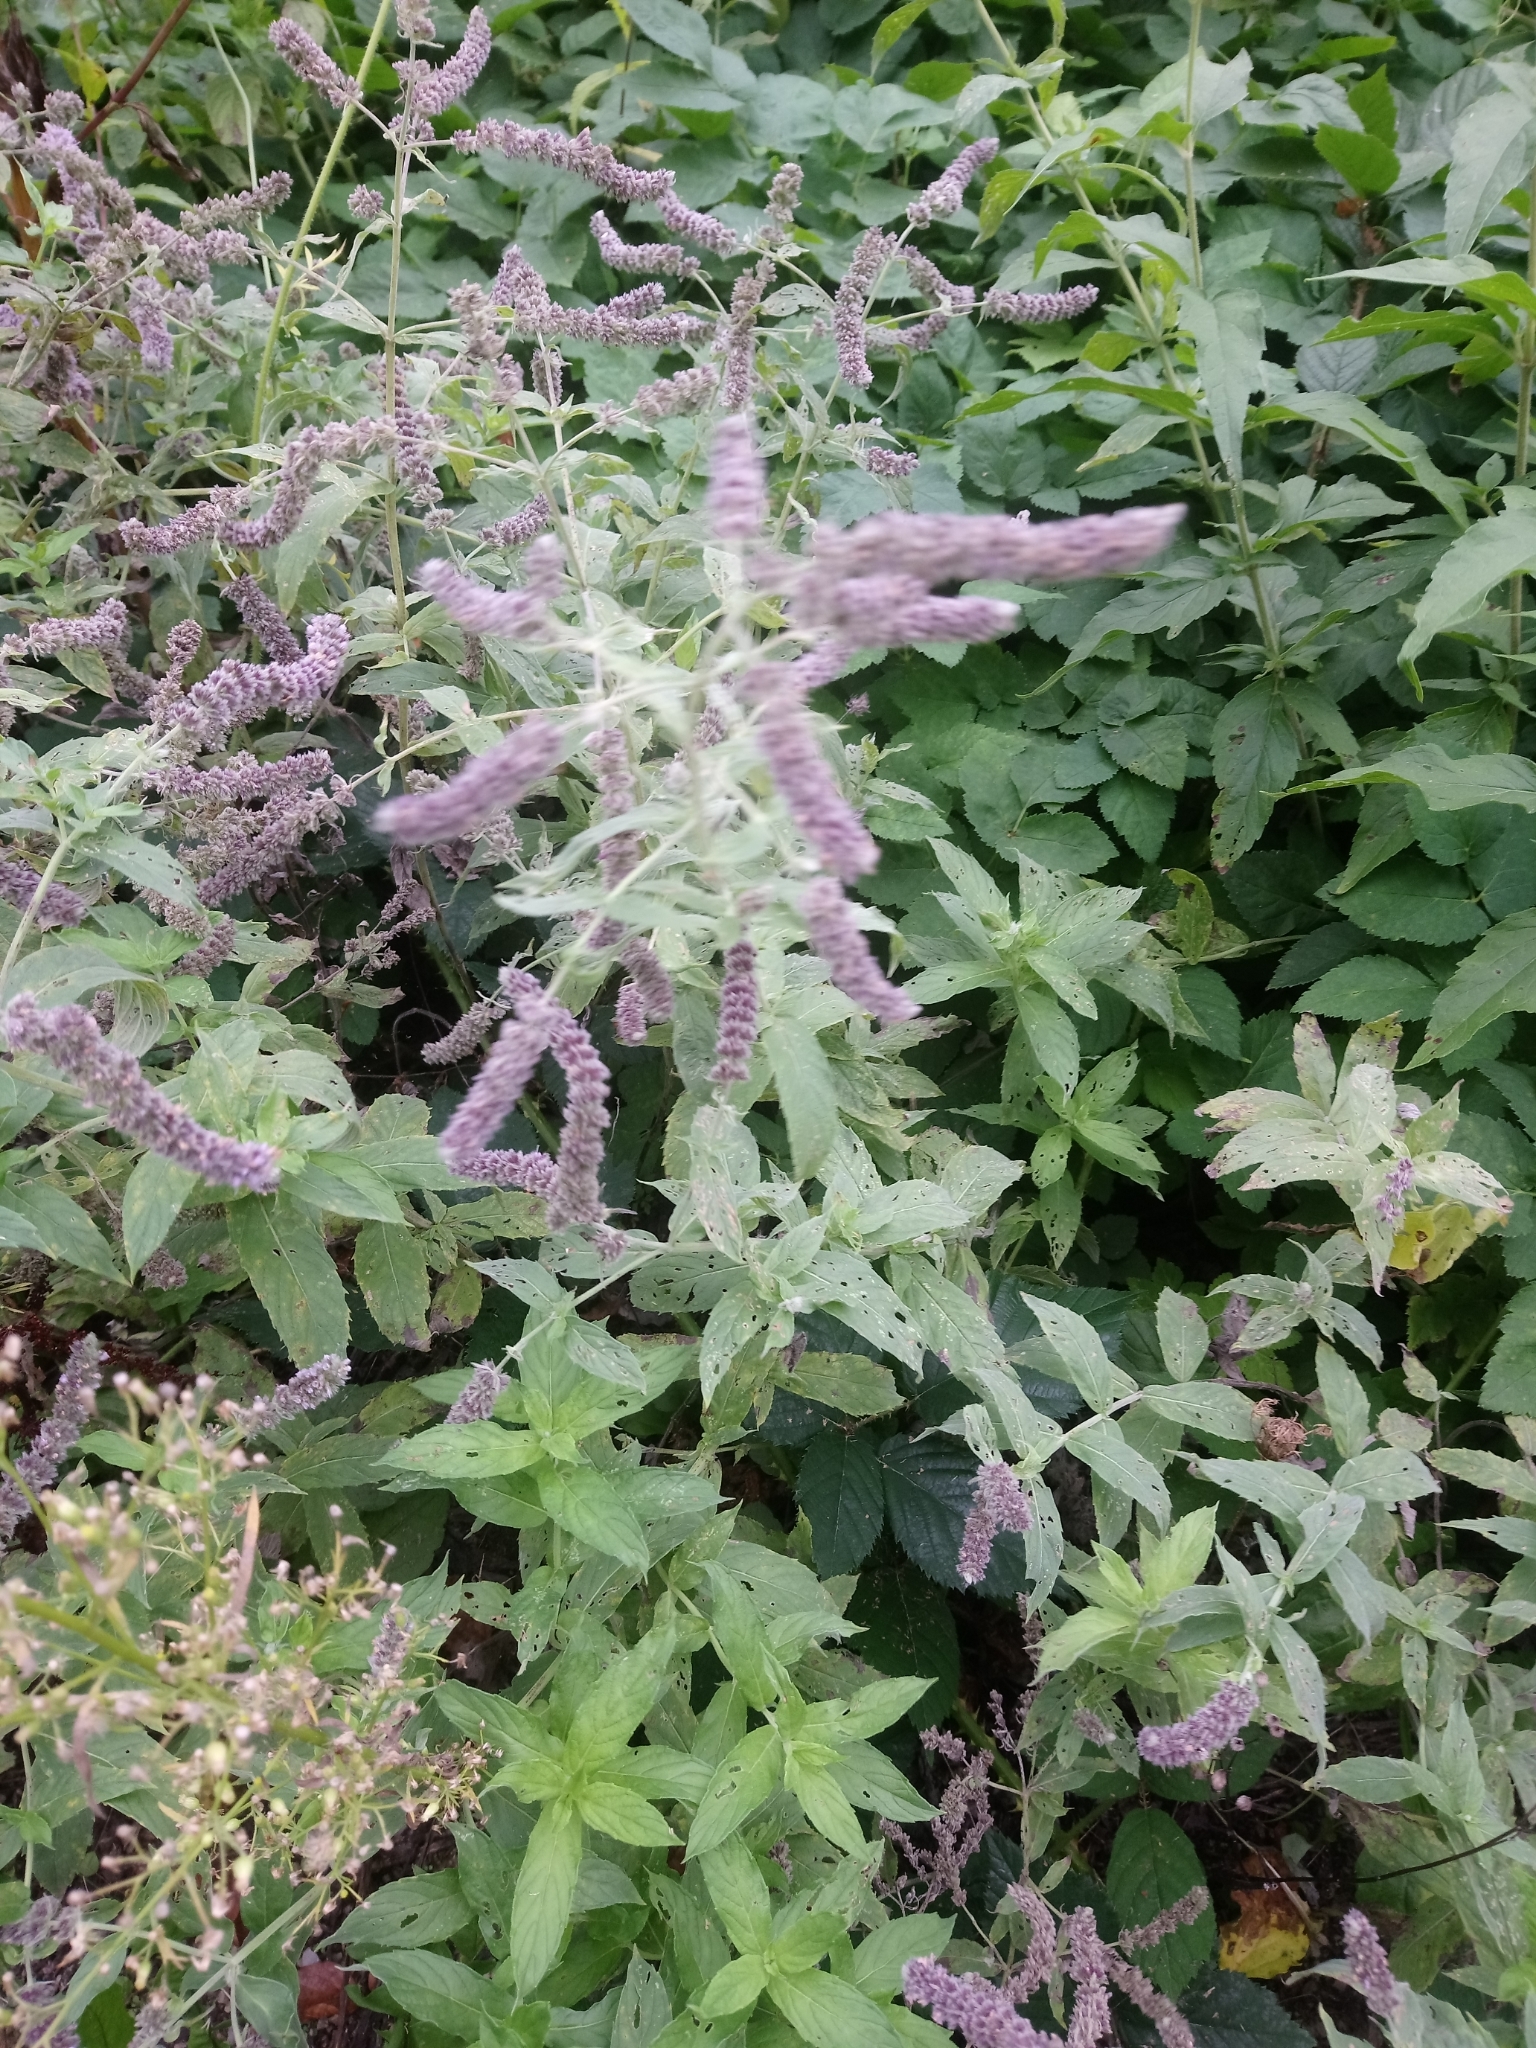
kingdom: Plantae
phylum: Tracheophyta
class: Magnoliopsida
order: Lamiales
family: Lamiaceae
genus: Mentha
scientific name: Mentha longifolia
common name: Horse mint
